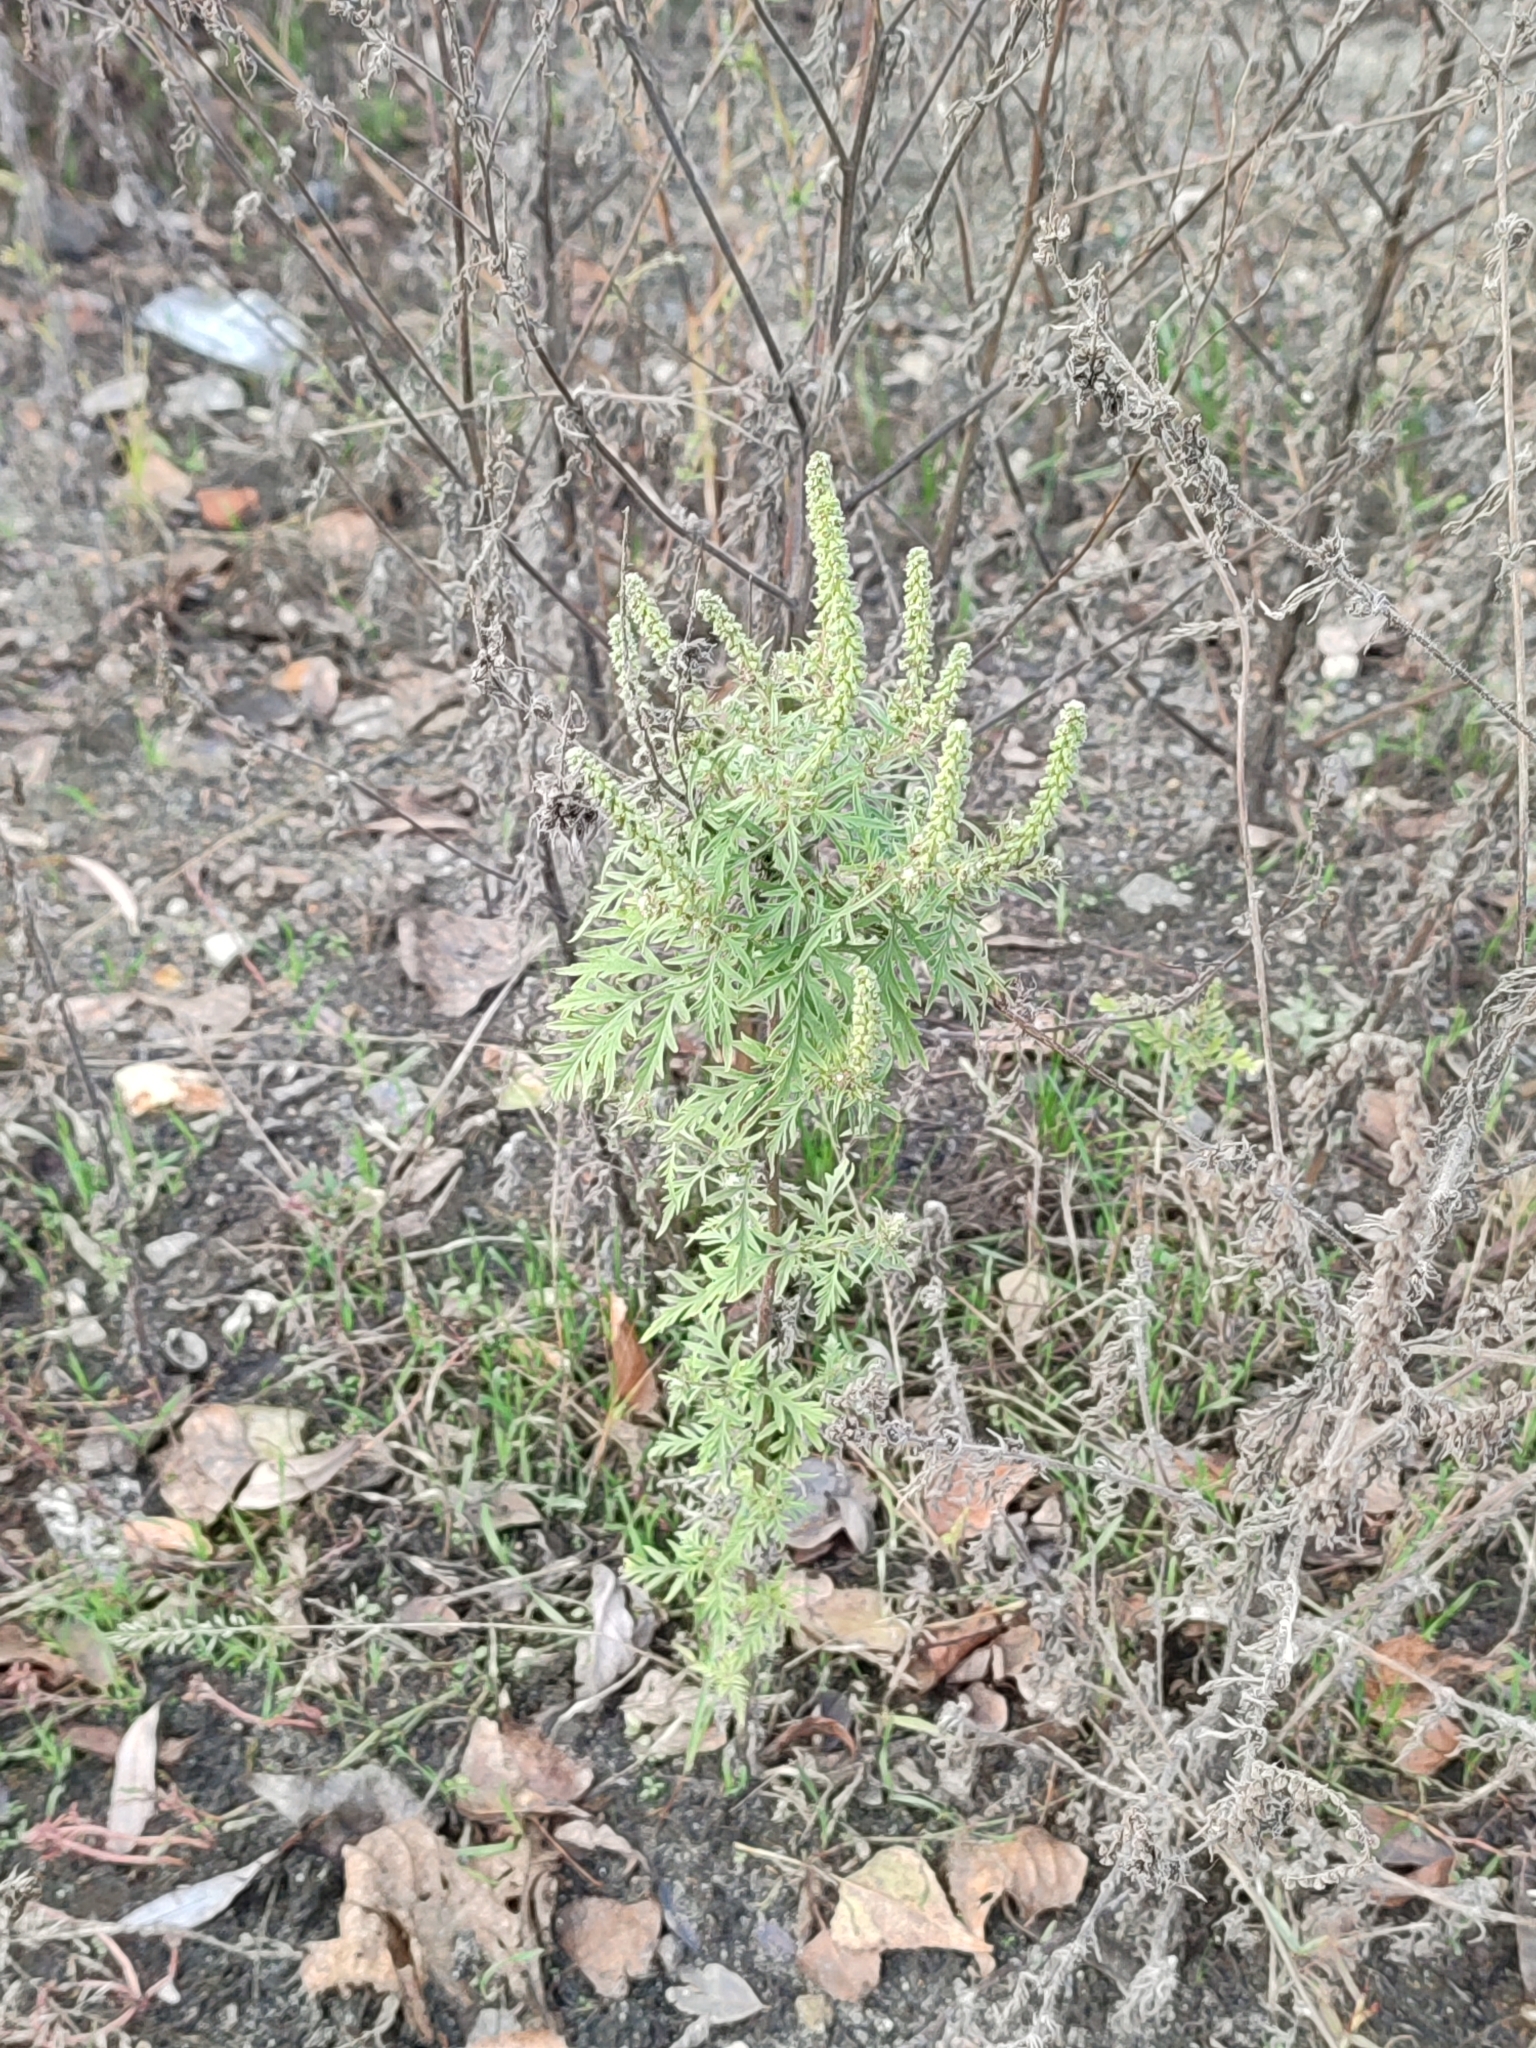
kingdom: Plantae
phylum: Tracheophyta
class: Magnoliopsida
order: Asterales
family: Asteraceae
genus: Ambrosia
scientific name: Ambrosia artemisiifolia
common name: Annual ragweed
